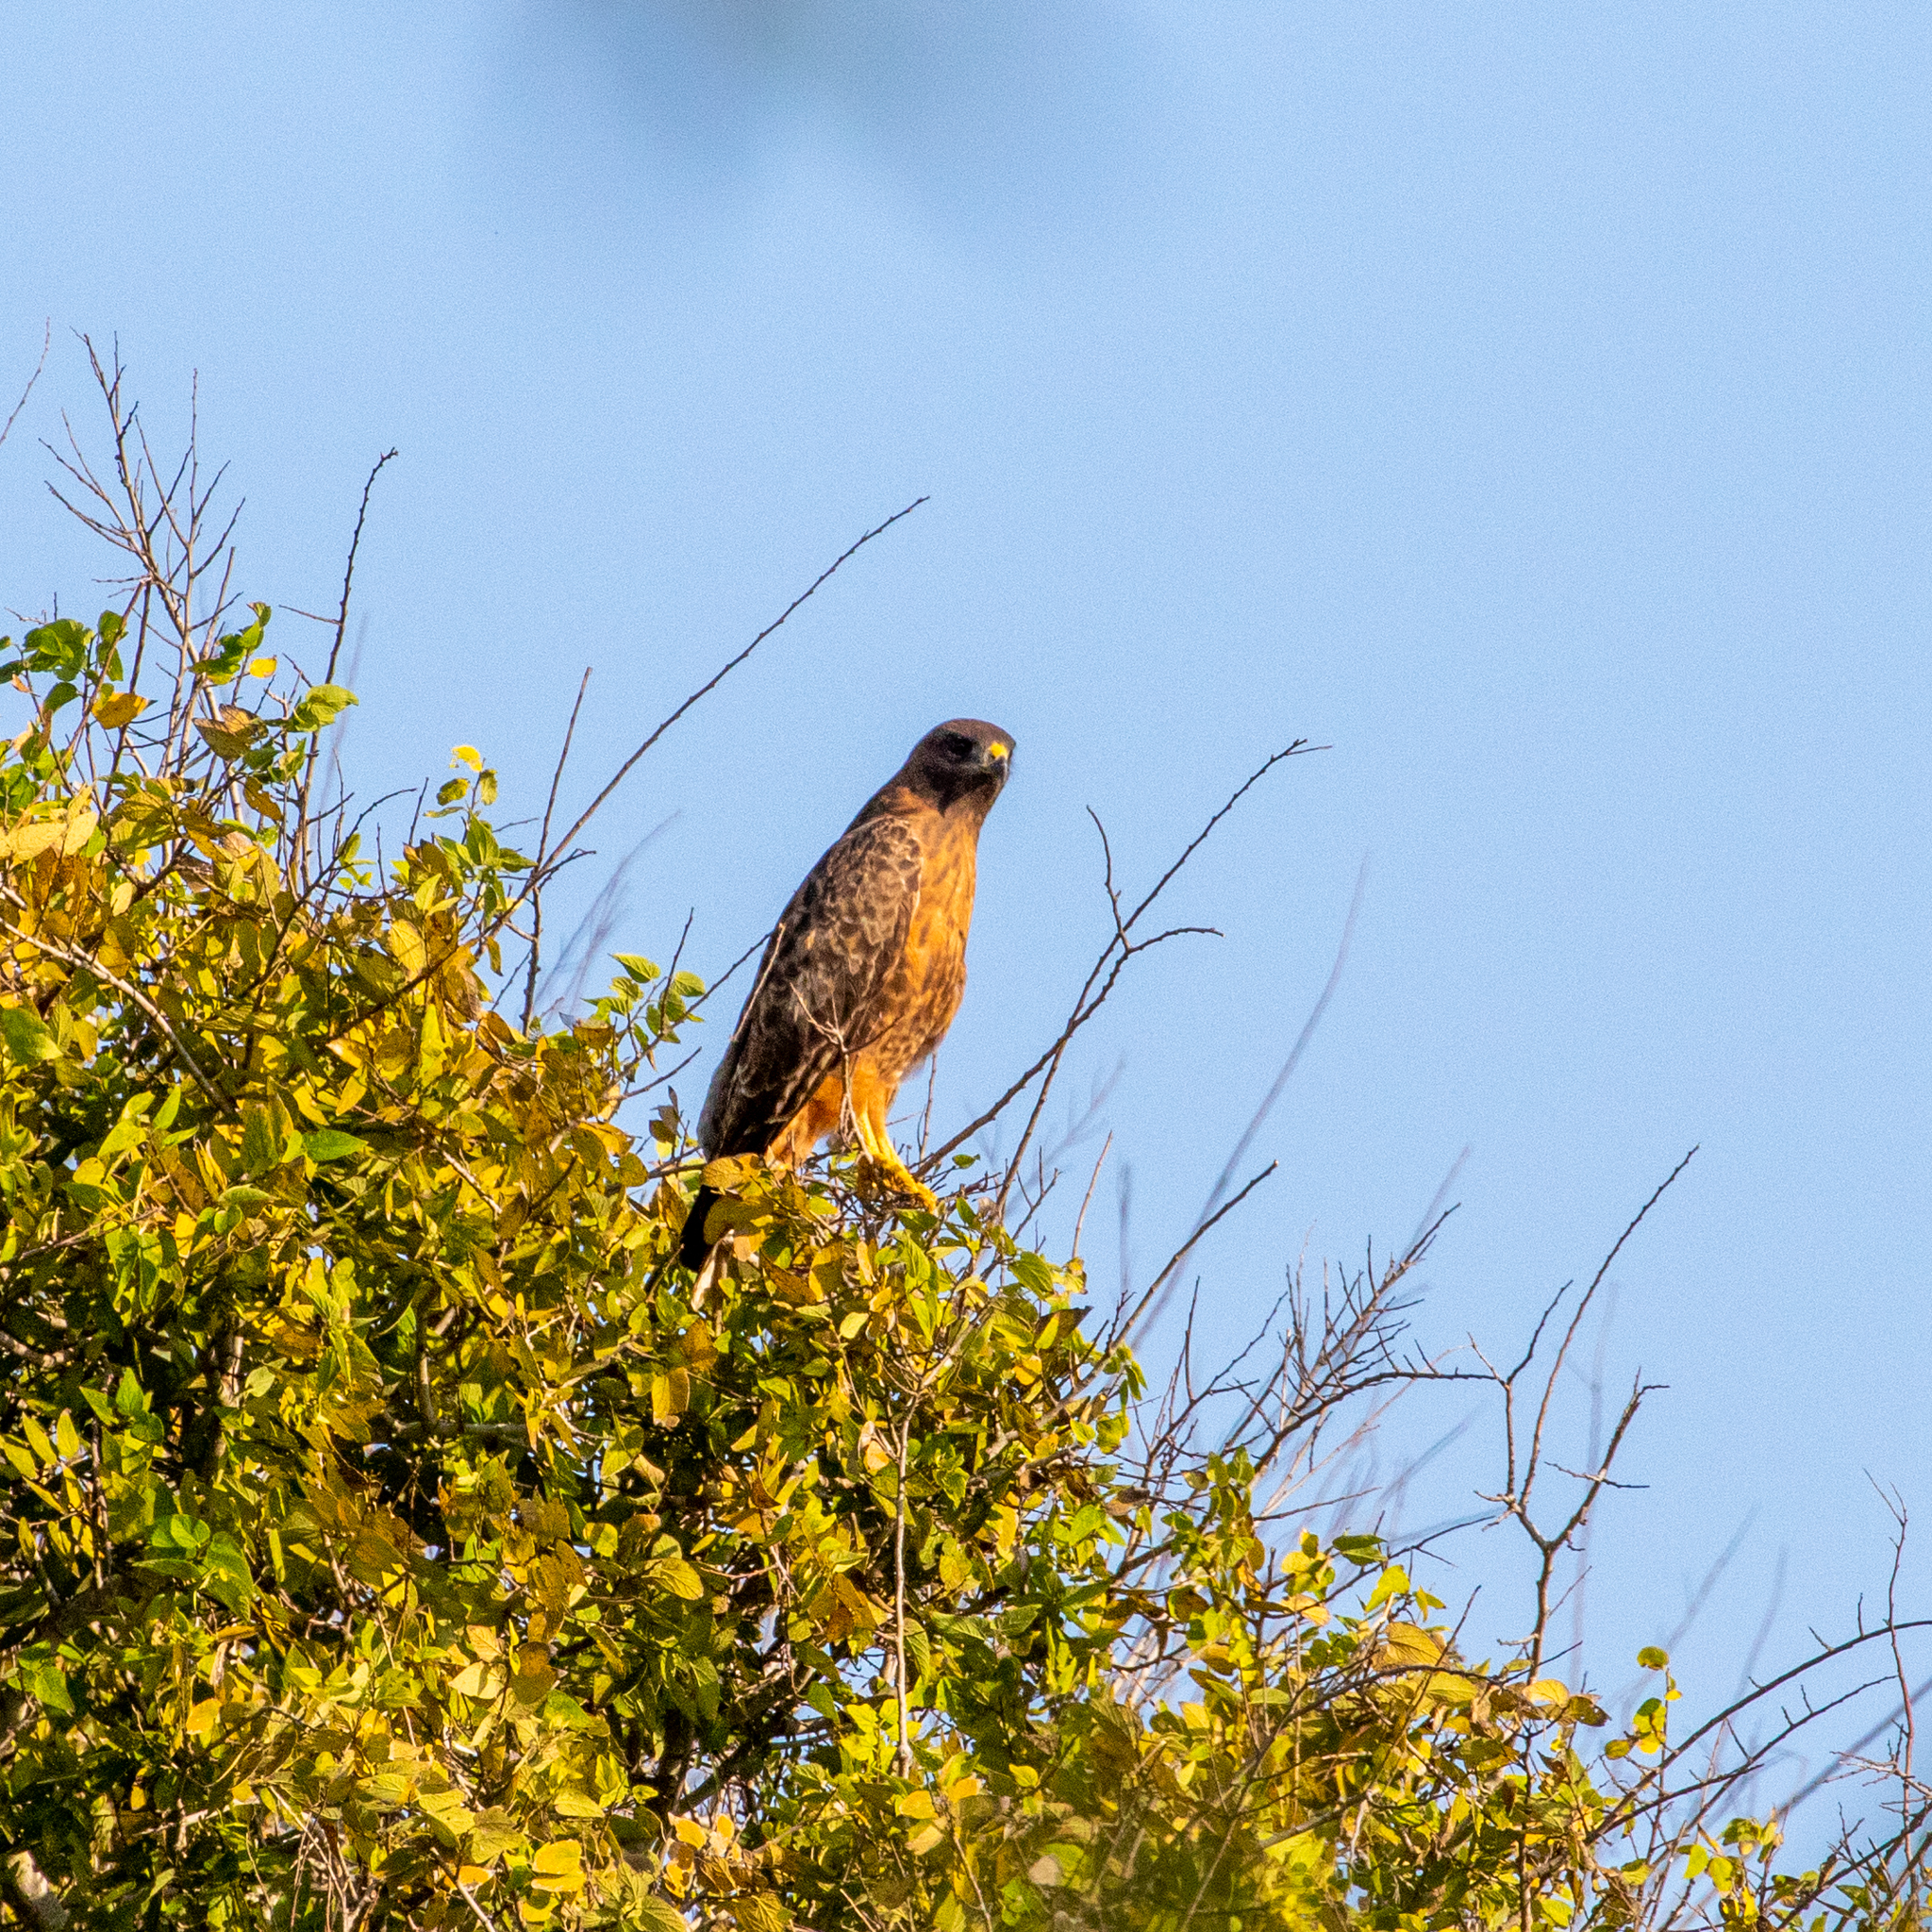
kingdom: Animalia
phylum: Chordata
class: Aves
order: Accipitriformes
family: Accipitridae
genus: Buteo
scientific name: Buteo jamaicensis
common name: Red-tailed hawk
